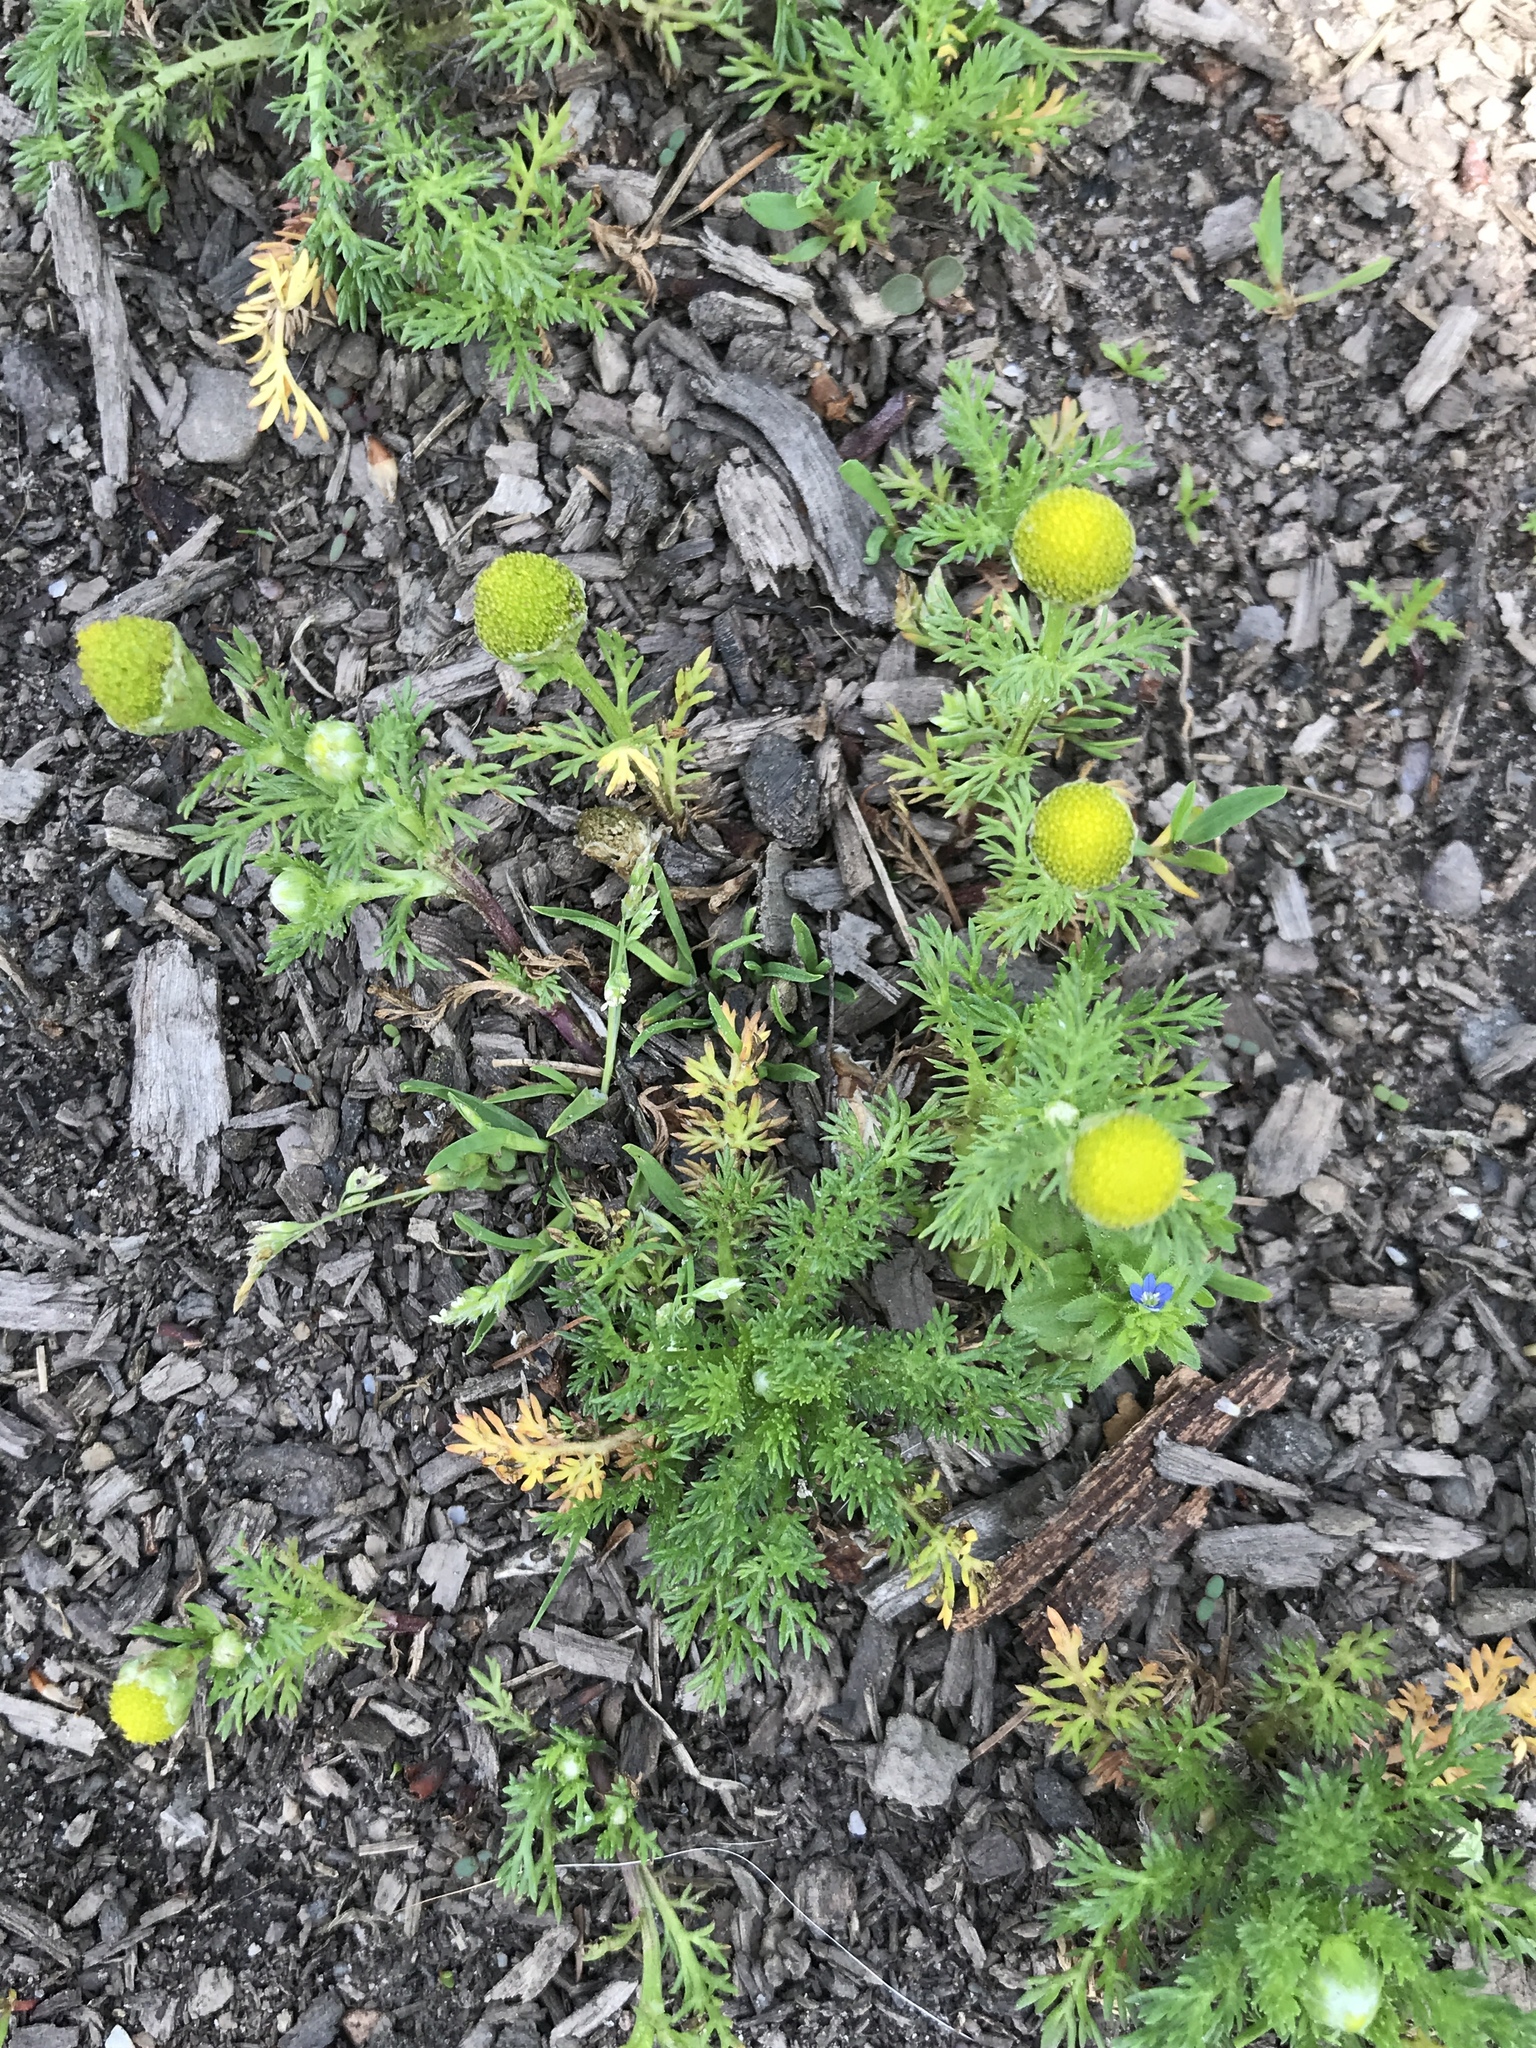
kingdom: Plantae
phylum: Tracheophyta
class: Magnoliopsida
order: Asterales
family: Asteraceae
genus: Matricaria
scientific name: Matricaria discoidea
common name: Disc mayweed
